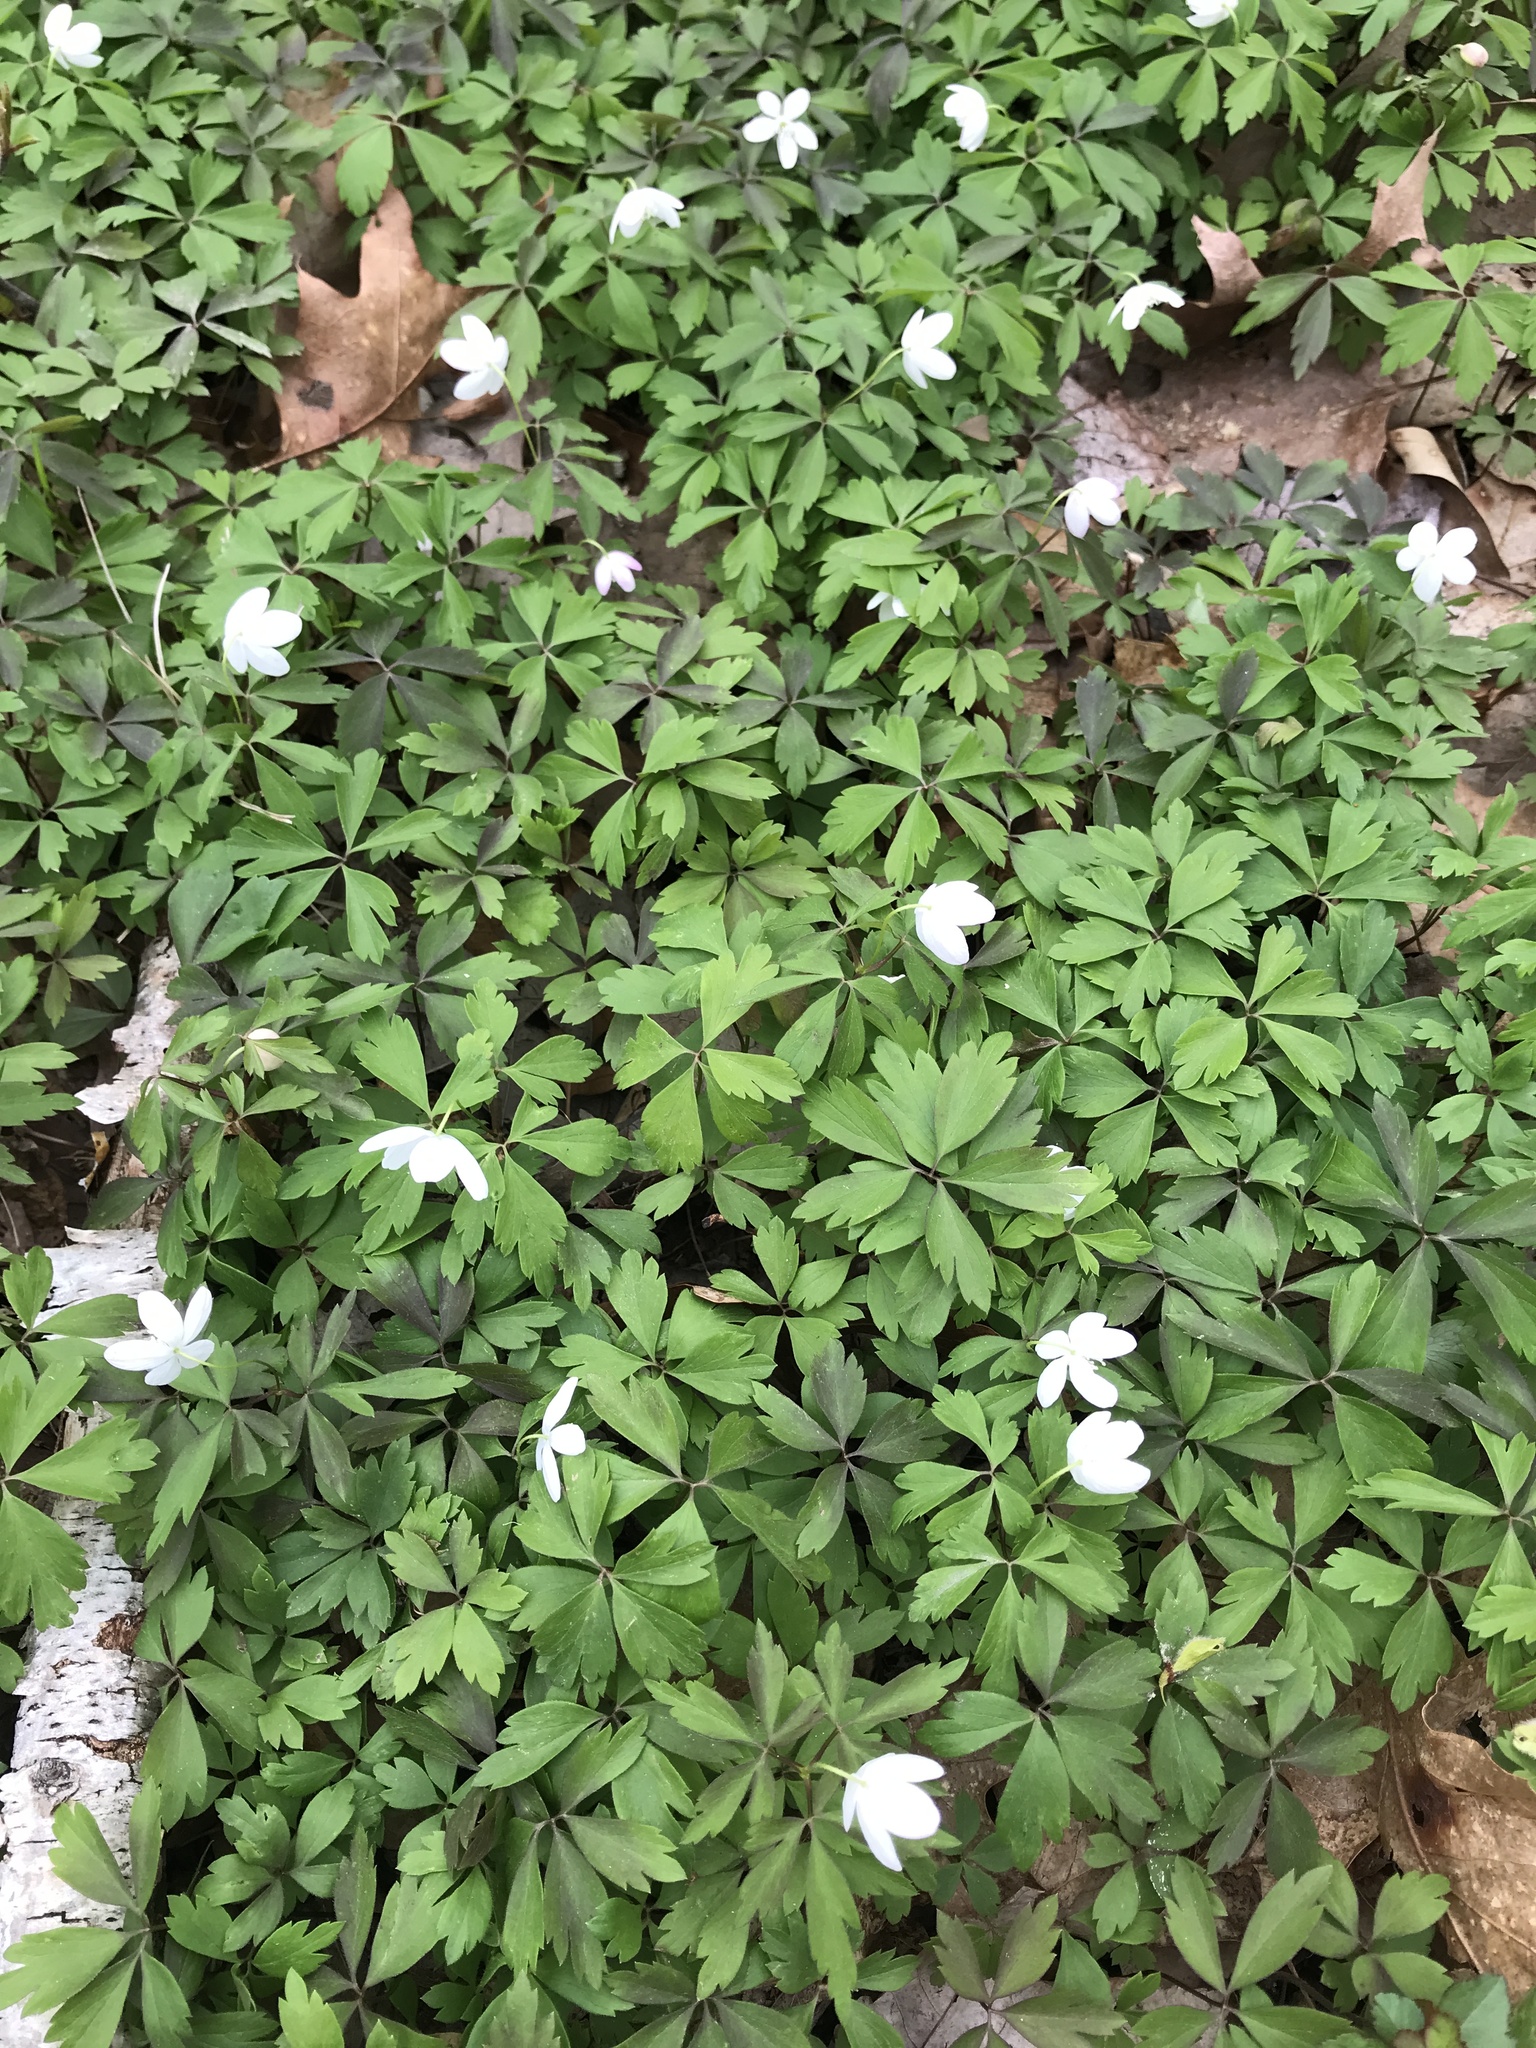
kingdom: Plantae
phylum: Tracheophyta
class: Magnoliopsida
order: Ranunculales
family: Ranunculaceae
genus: Anemone
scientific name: Anemone quinquefolia
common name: Wood anemone
